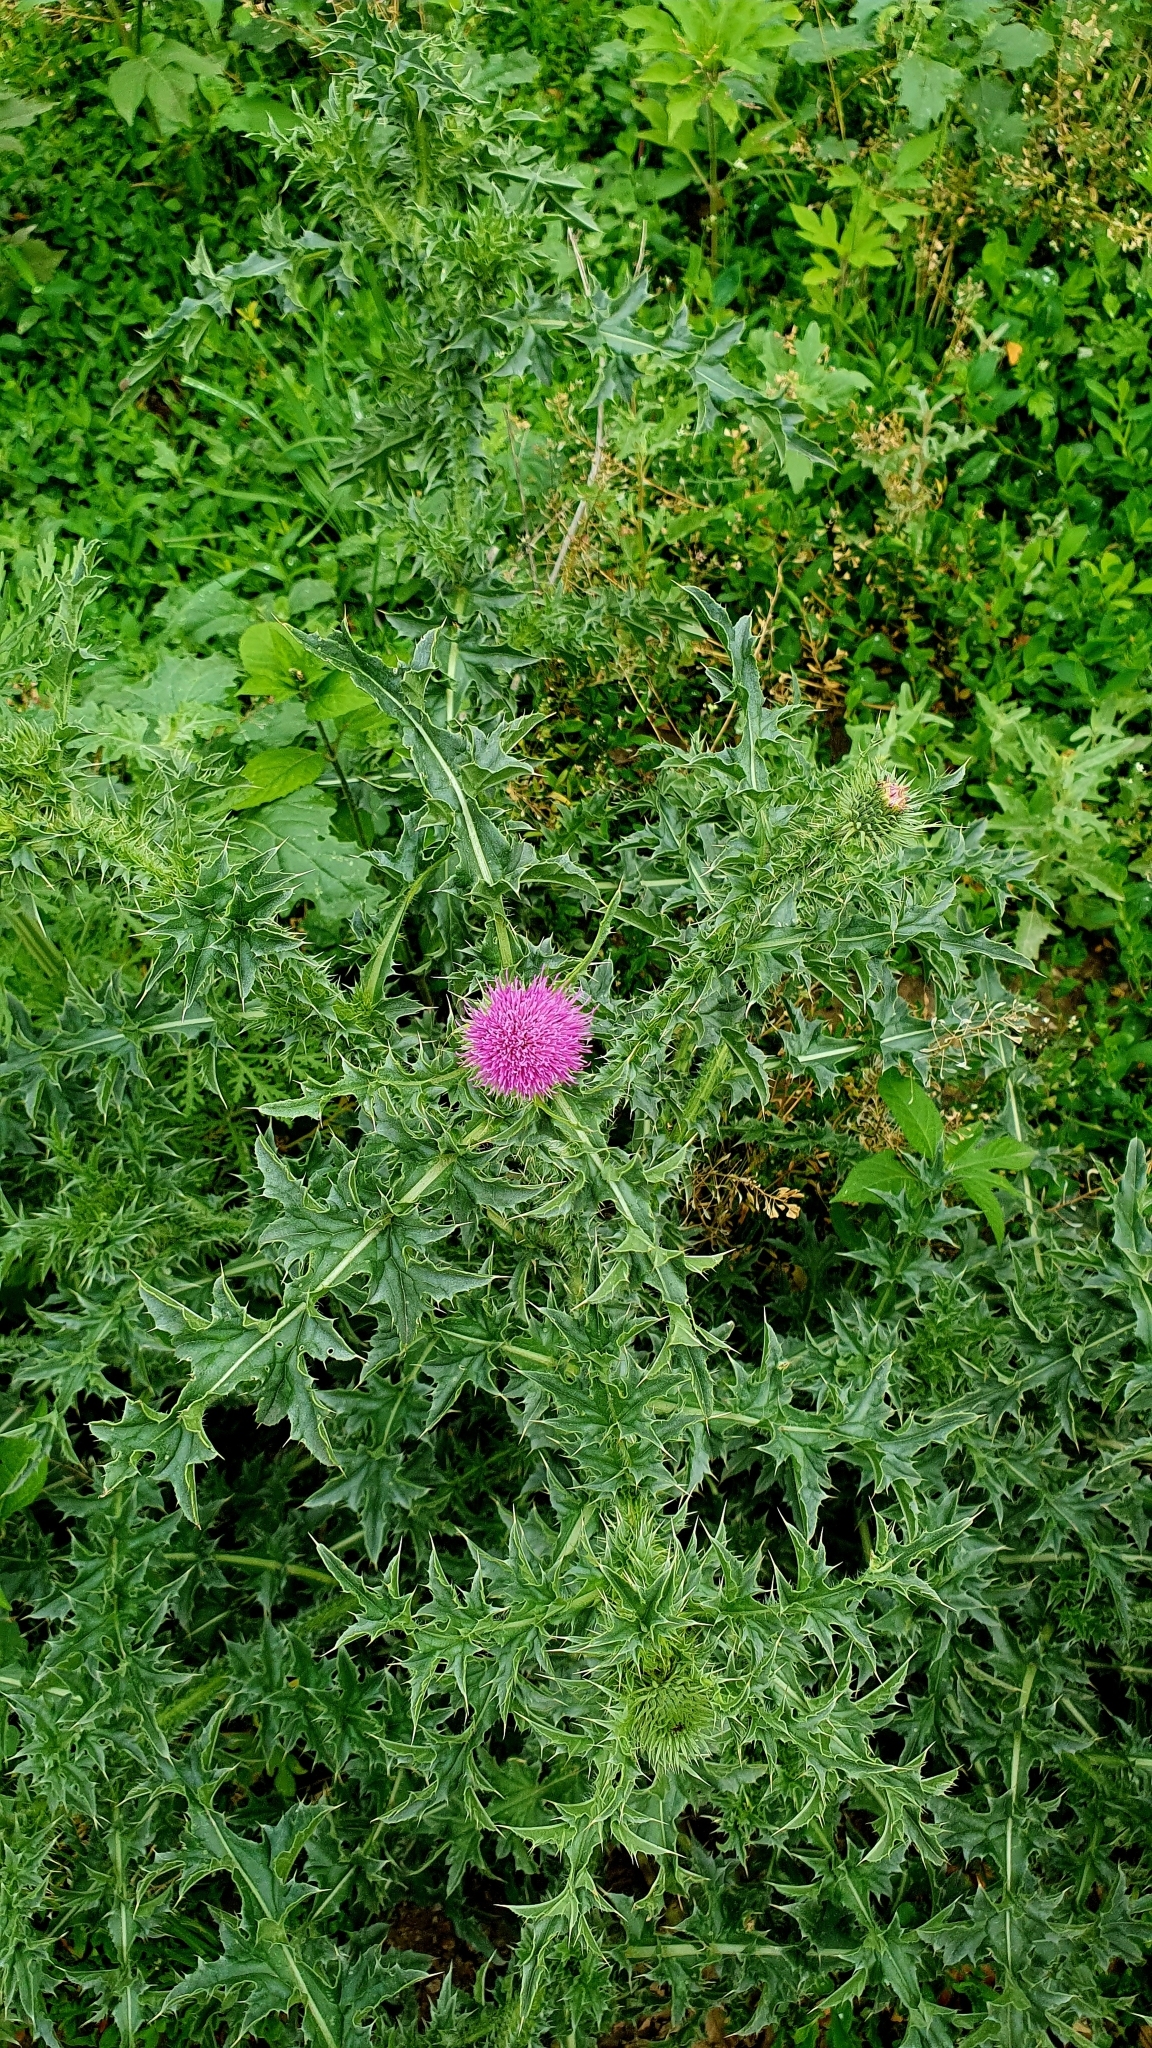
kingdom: Plantae
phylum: Tracheophyta
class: Magnoliopsida
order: Asterales
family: Asteraceae
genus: Carduus
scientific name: Carduus acanthoides
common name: Plumeless thistle
